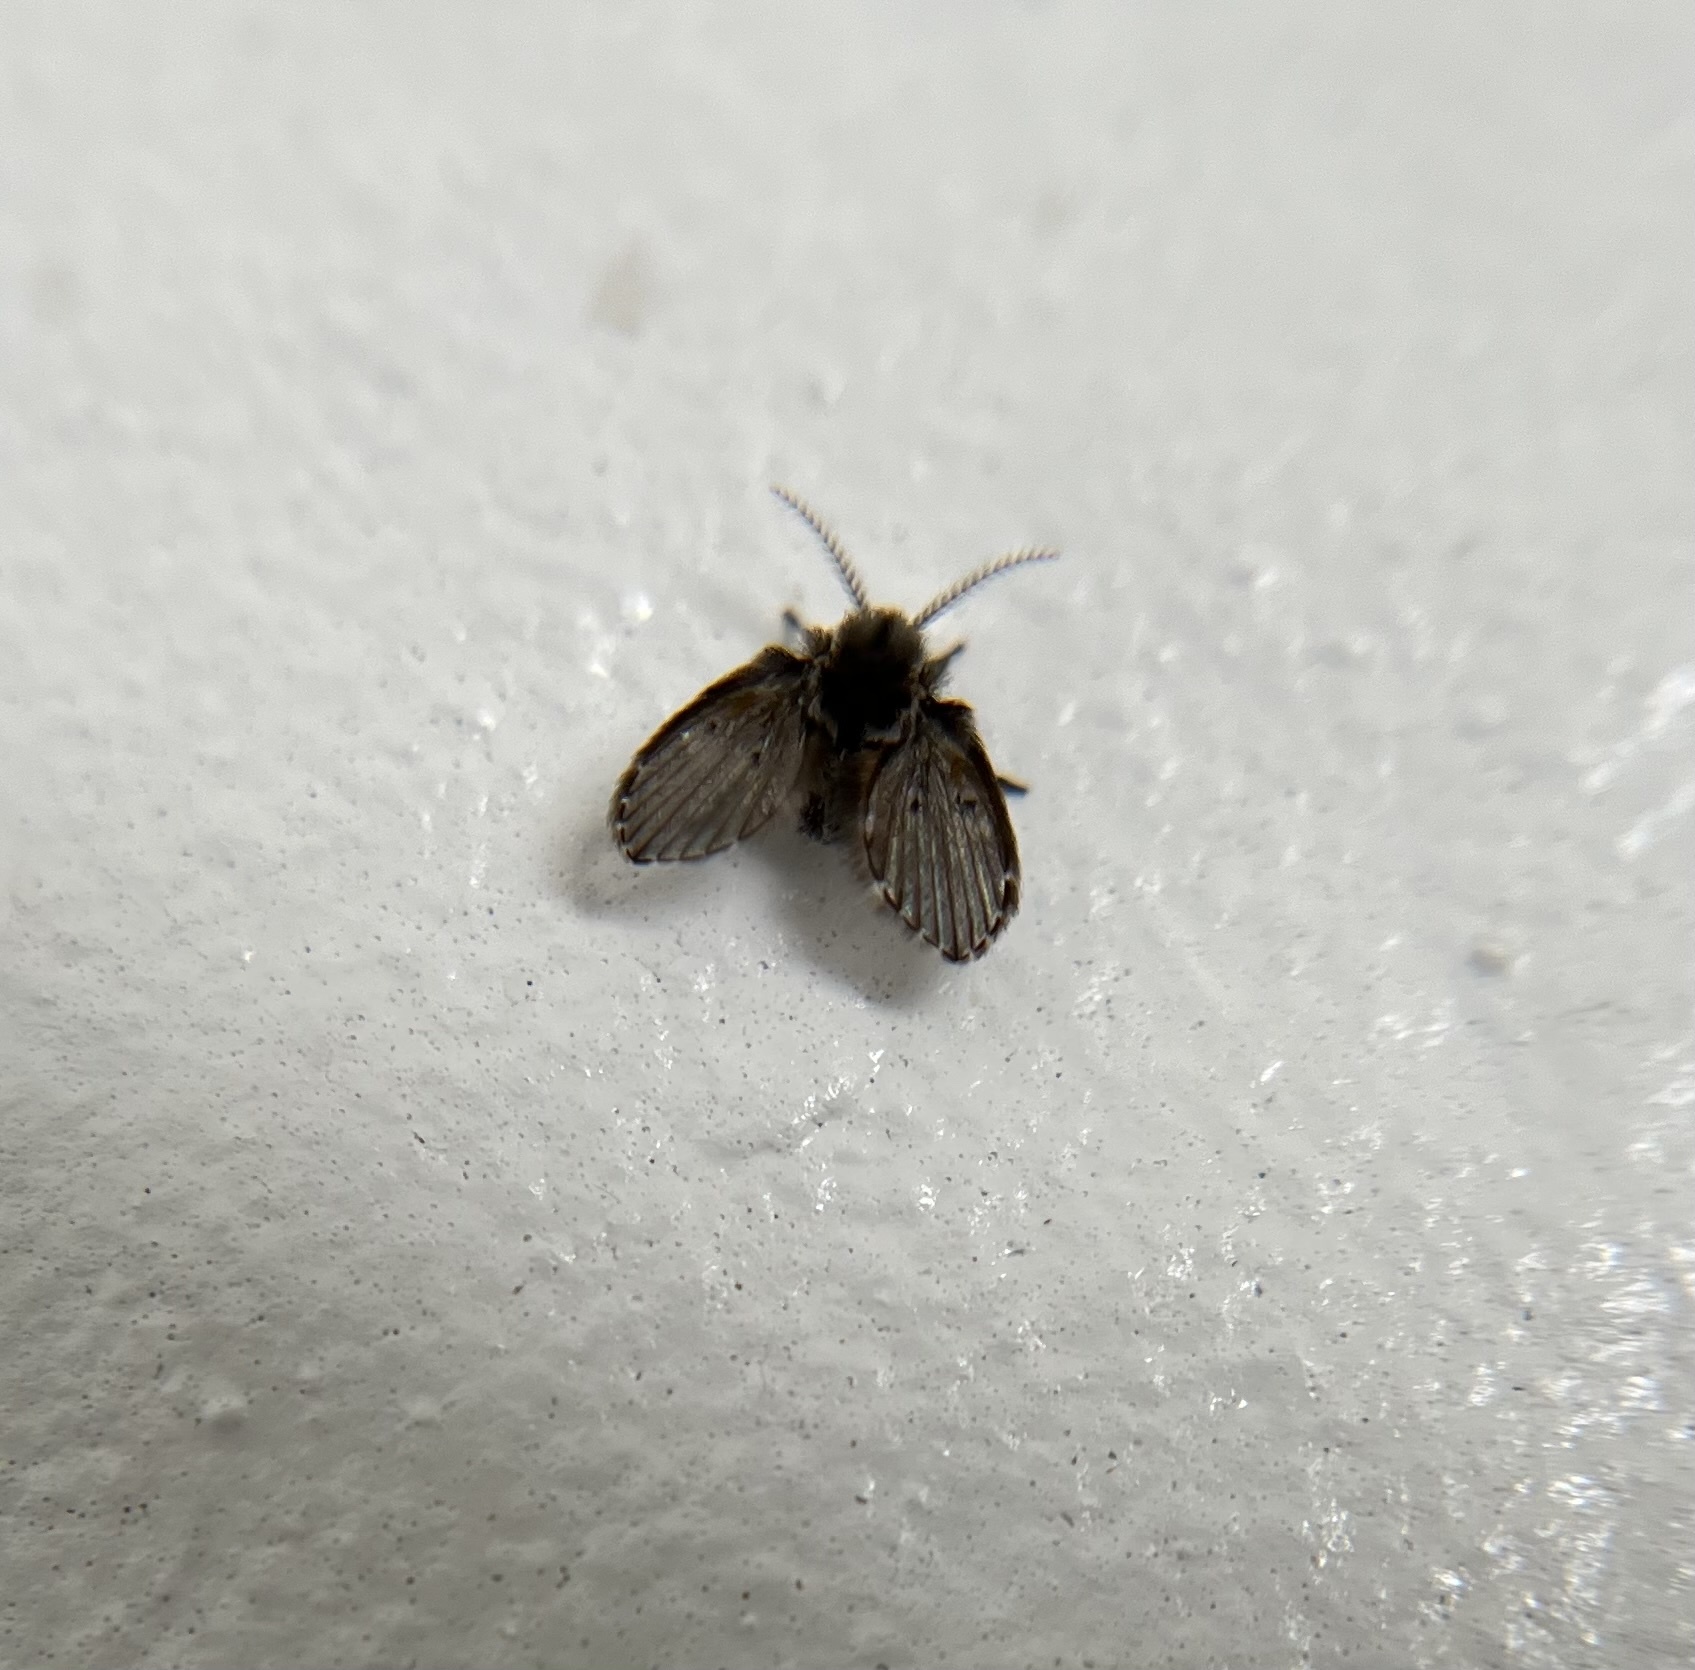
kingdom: Animalia
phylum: Arthropoda
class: Insecta
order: Diptera
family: Psychodidae
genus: Clogmia
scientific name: Clogmia albipunctatus
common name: White-spotted moth fly
